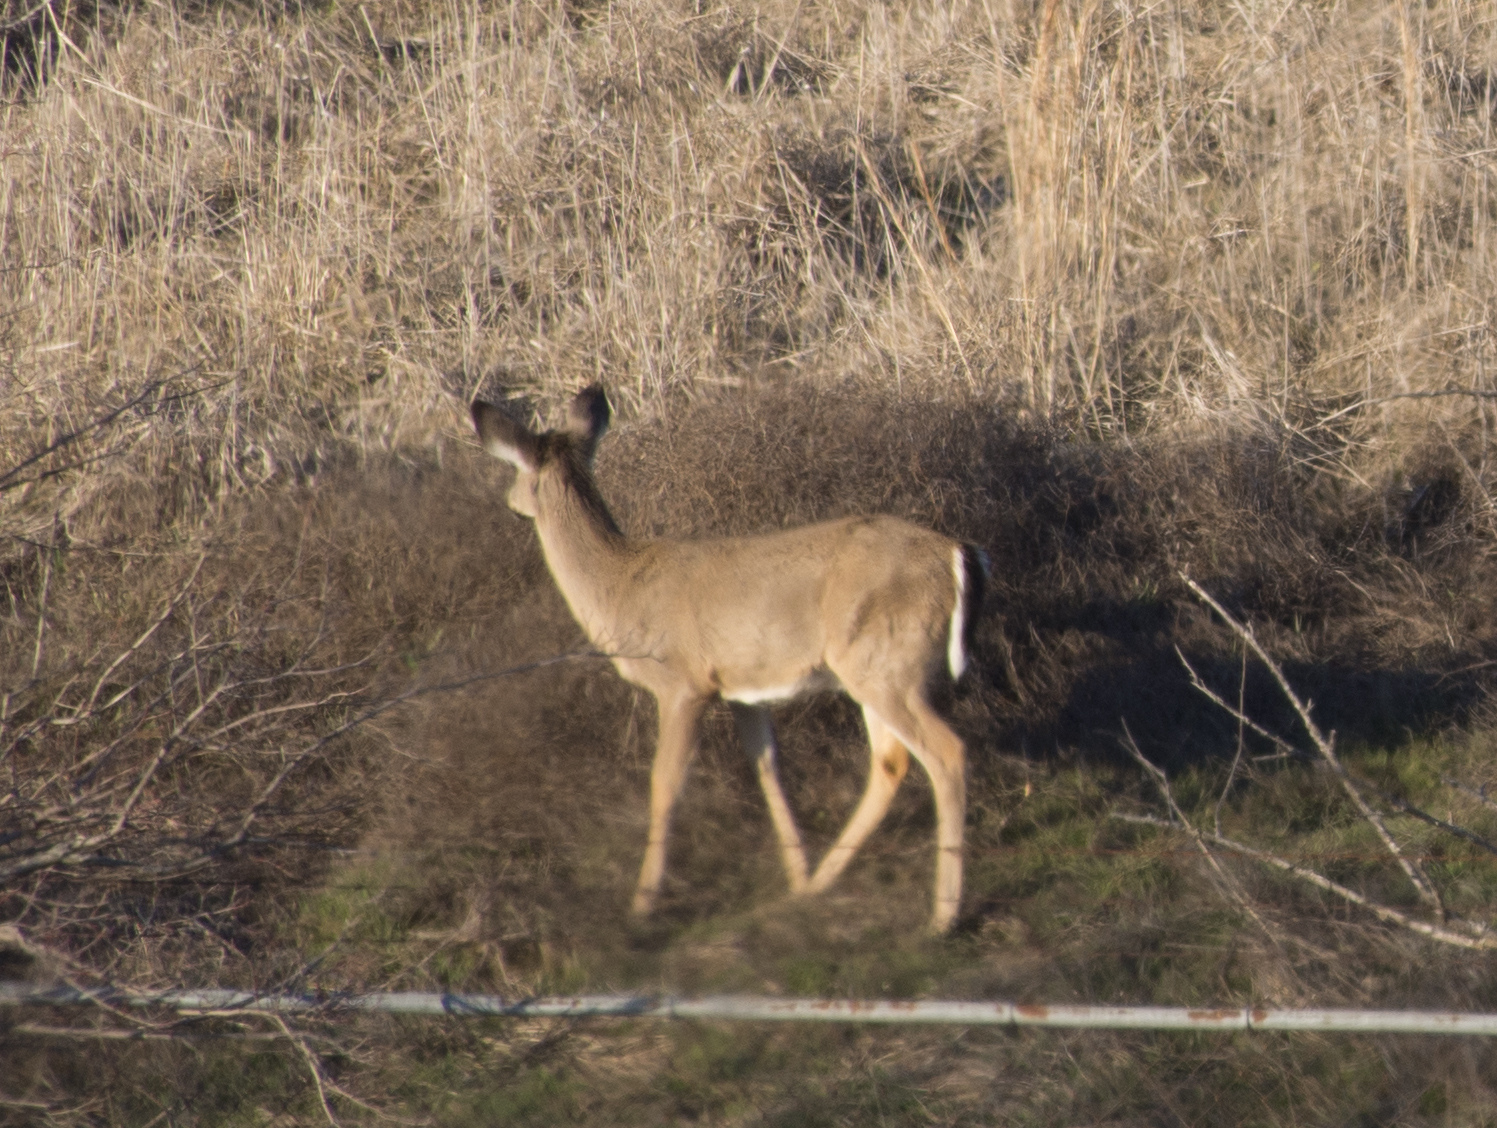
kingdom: Animalia
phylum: Chordata
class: Mammalia
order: Artiodactyla
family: Cervidae
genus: Odocoileus
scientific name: Odocoileus virginianus
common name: White-tailed deer
